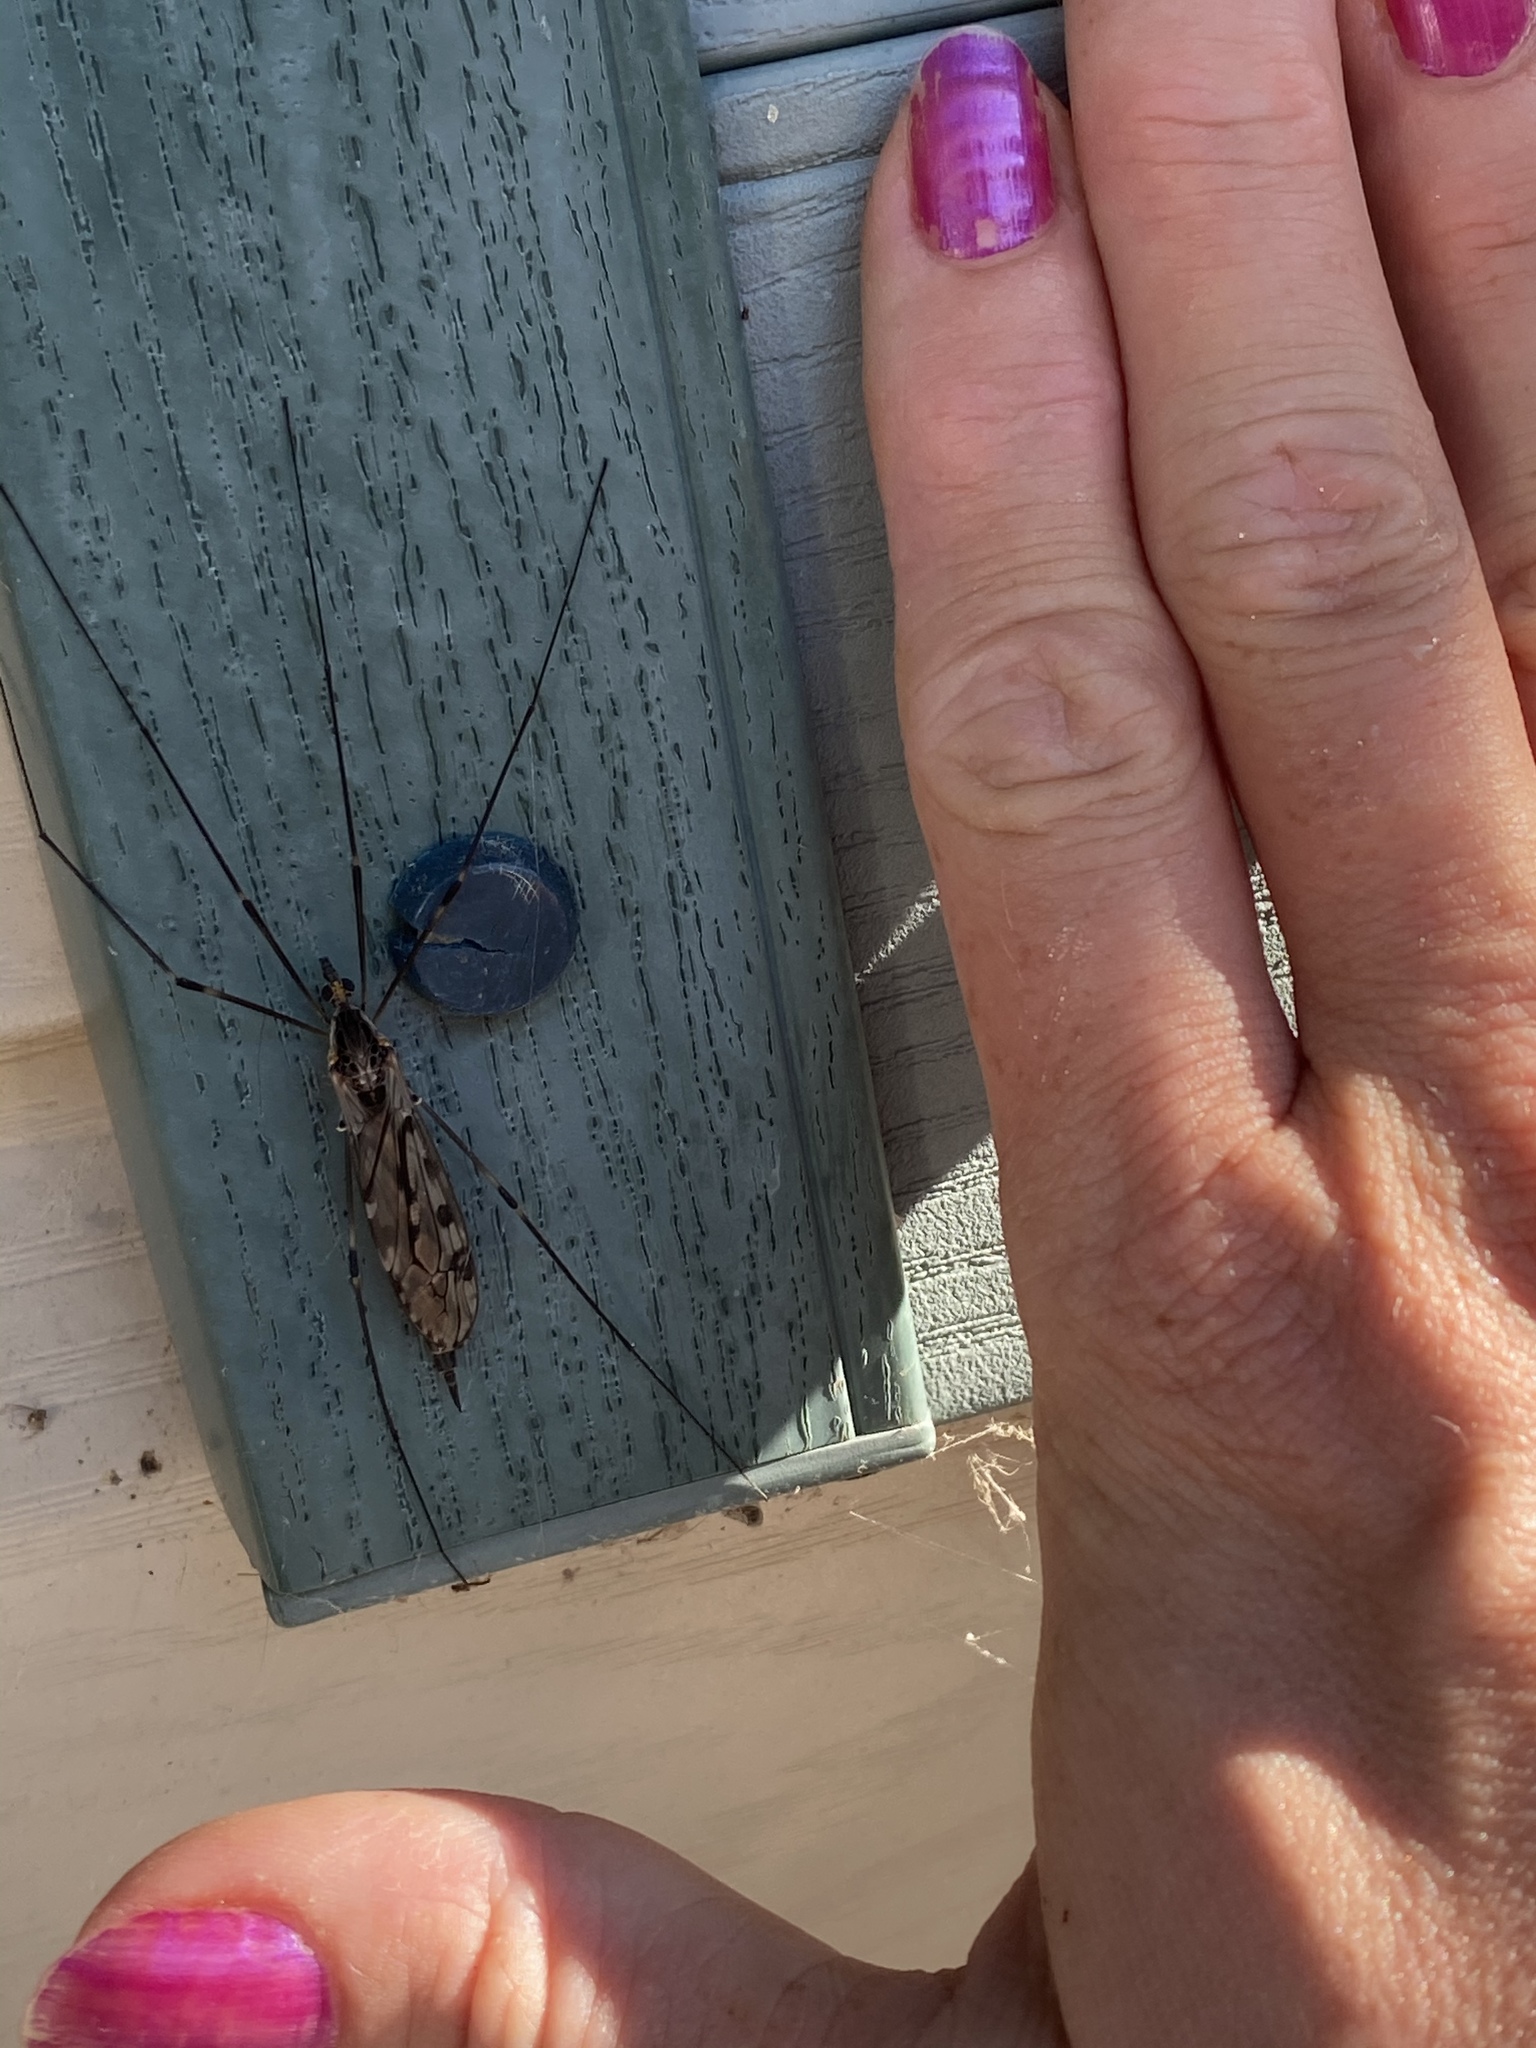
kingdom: Animalia
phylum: Arthropoda
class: Insecta
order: Diptera
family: Tipulidae
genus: Tipula
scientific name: Tipula abdominalis
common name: Giant crane fly
